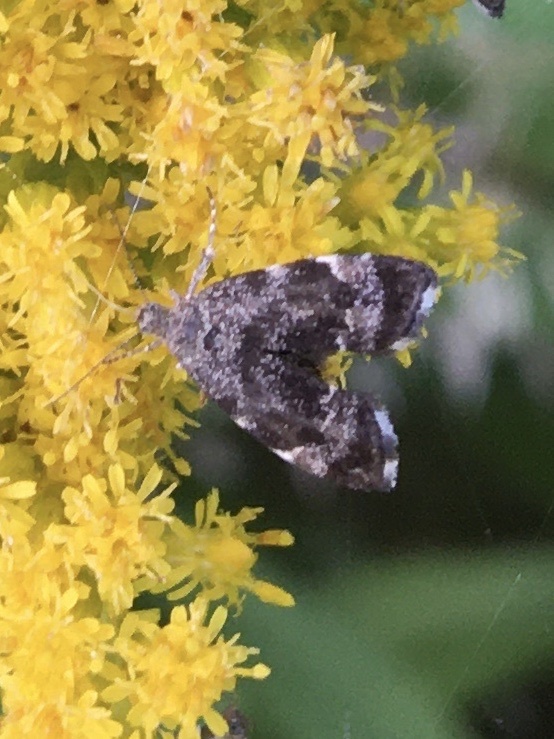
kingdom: Animalia
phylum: Arthropoda
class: Insecta
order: Lepidoptera
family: Choreutidae
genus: Anthophila
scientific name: Anthophila fabriciana
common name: Nettle-tap
